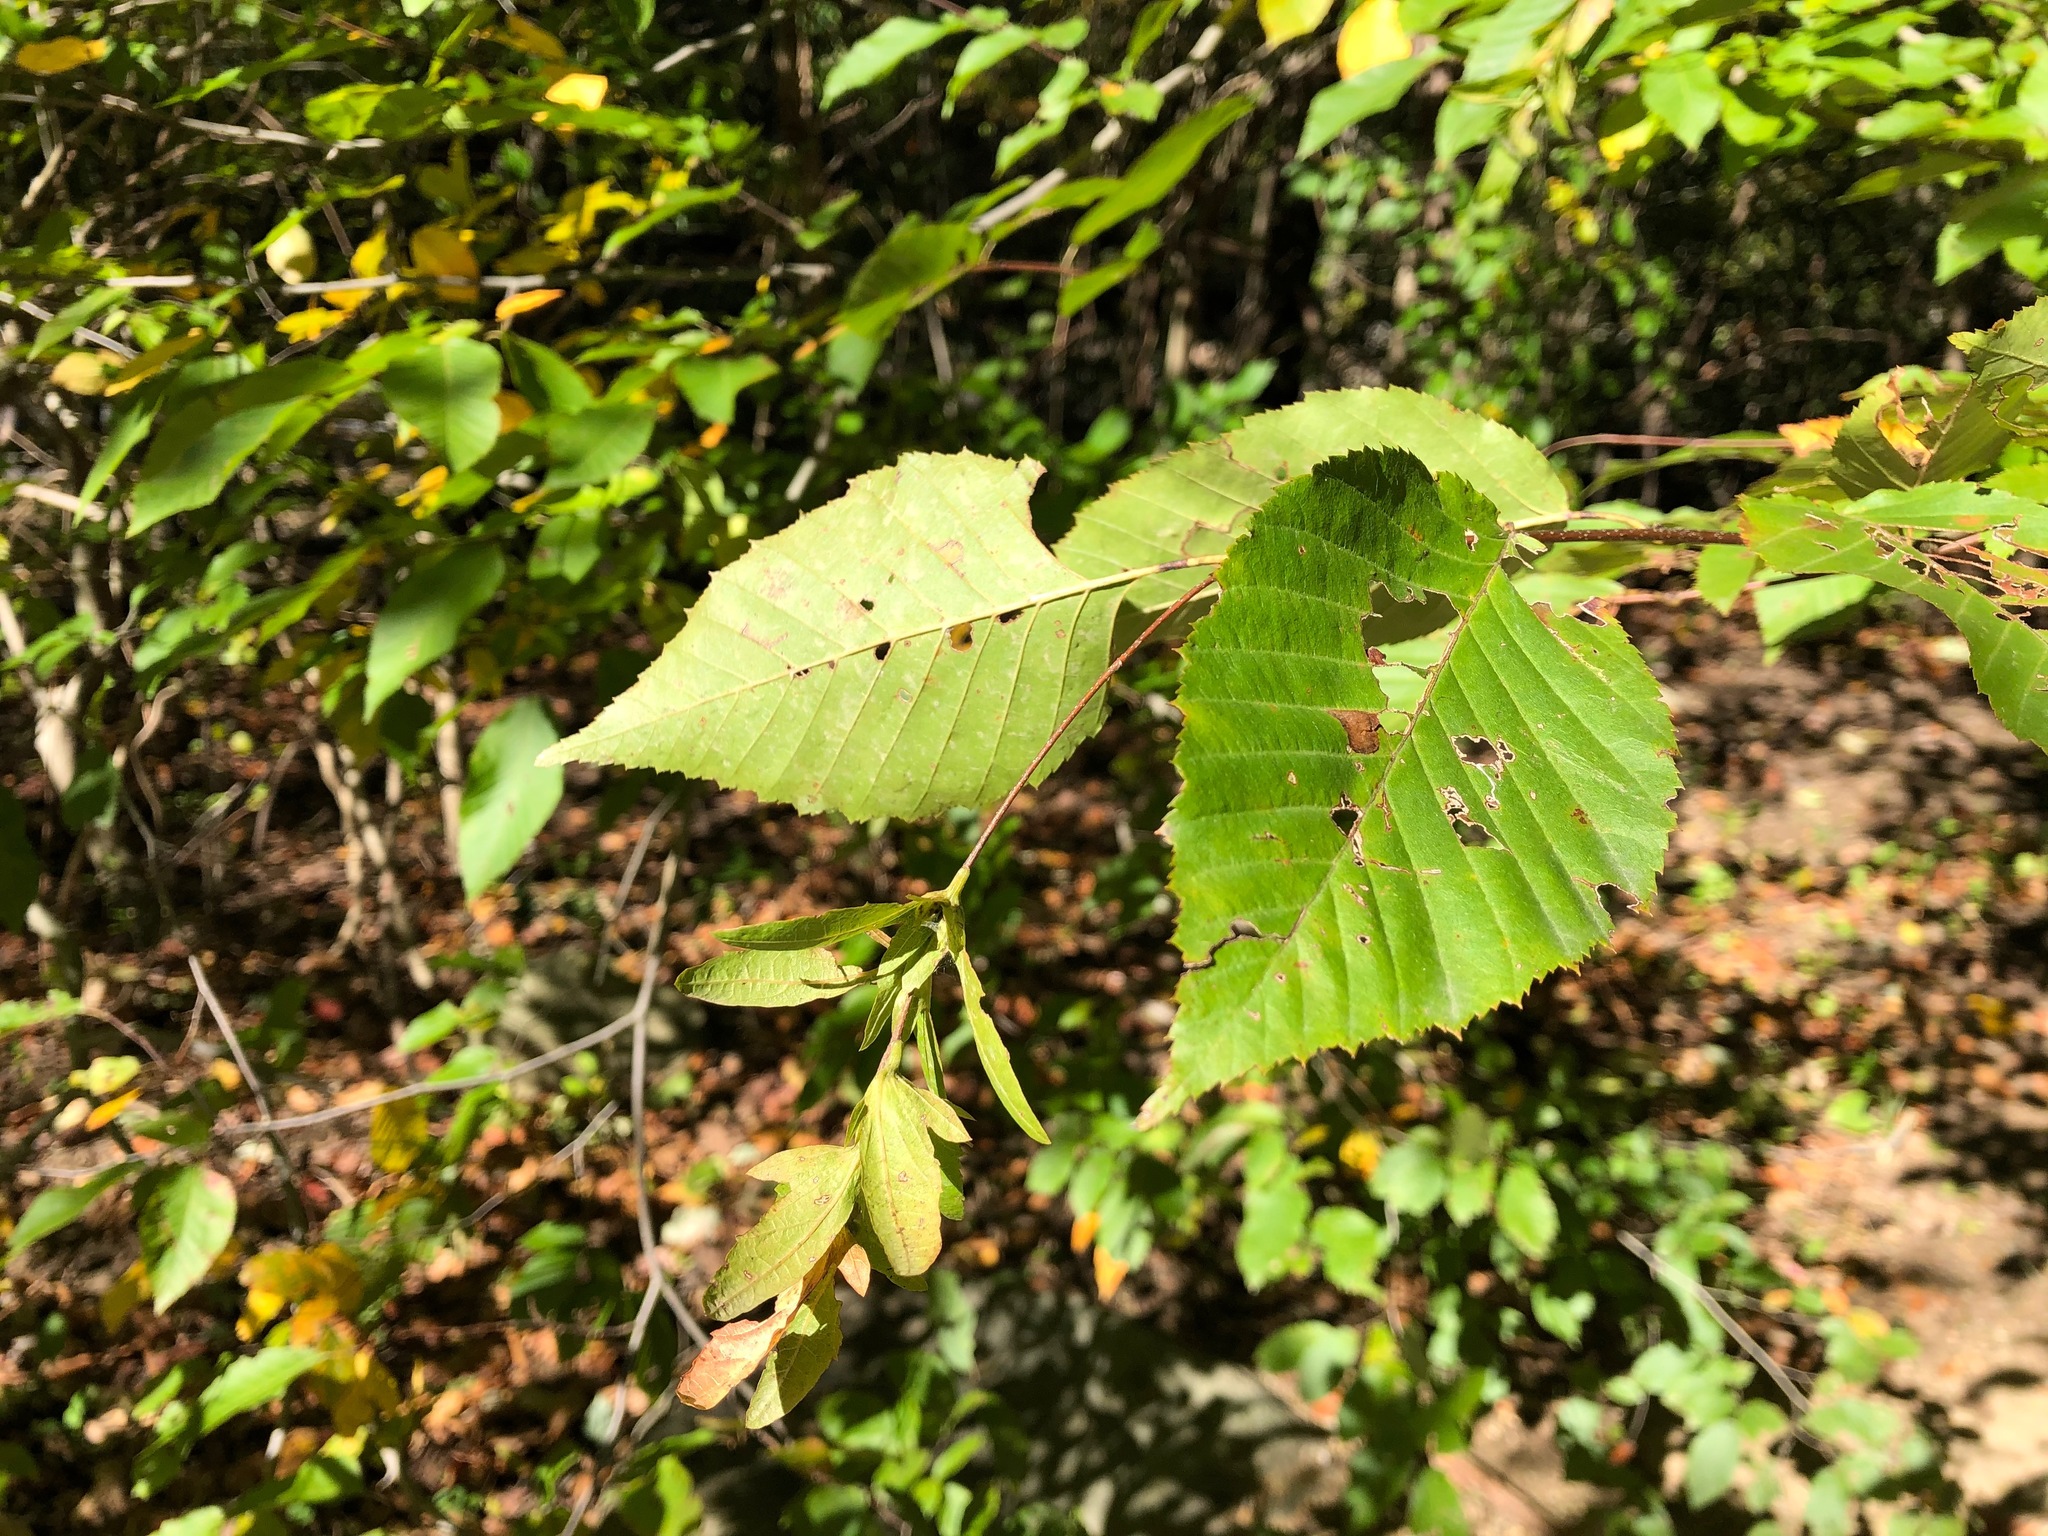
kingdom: Plantae
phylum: Tracheophyta
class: Magnoliopsida
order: Fagales
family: Betulaceae
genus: Carpinus
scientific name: Carpinus caroliniana
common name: American hornbeam
